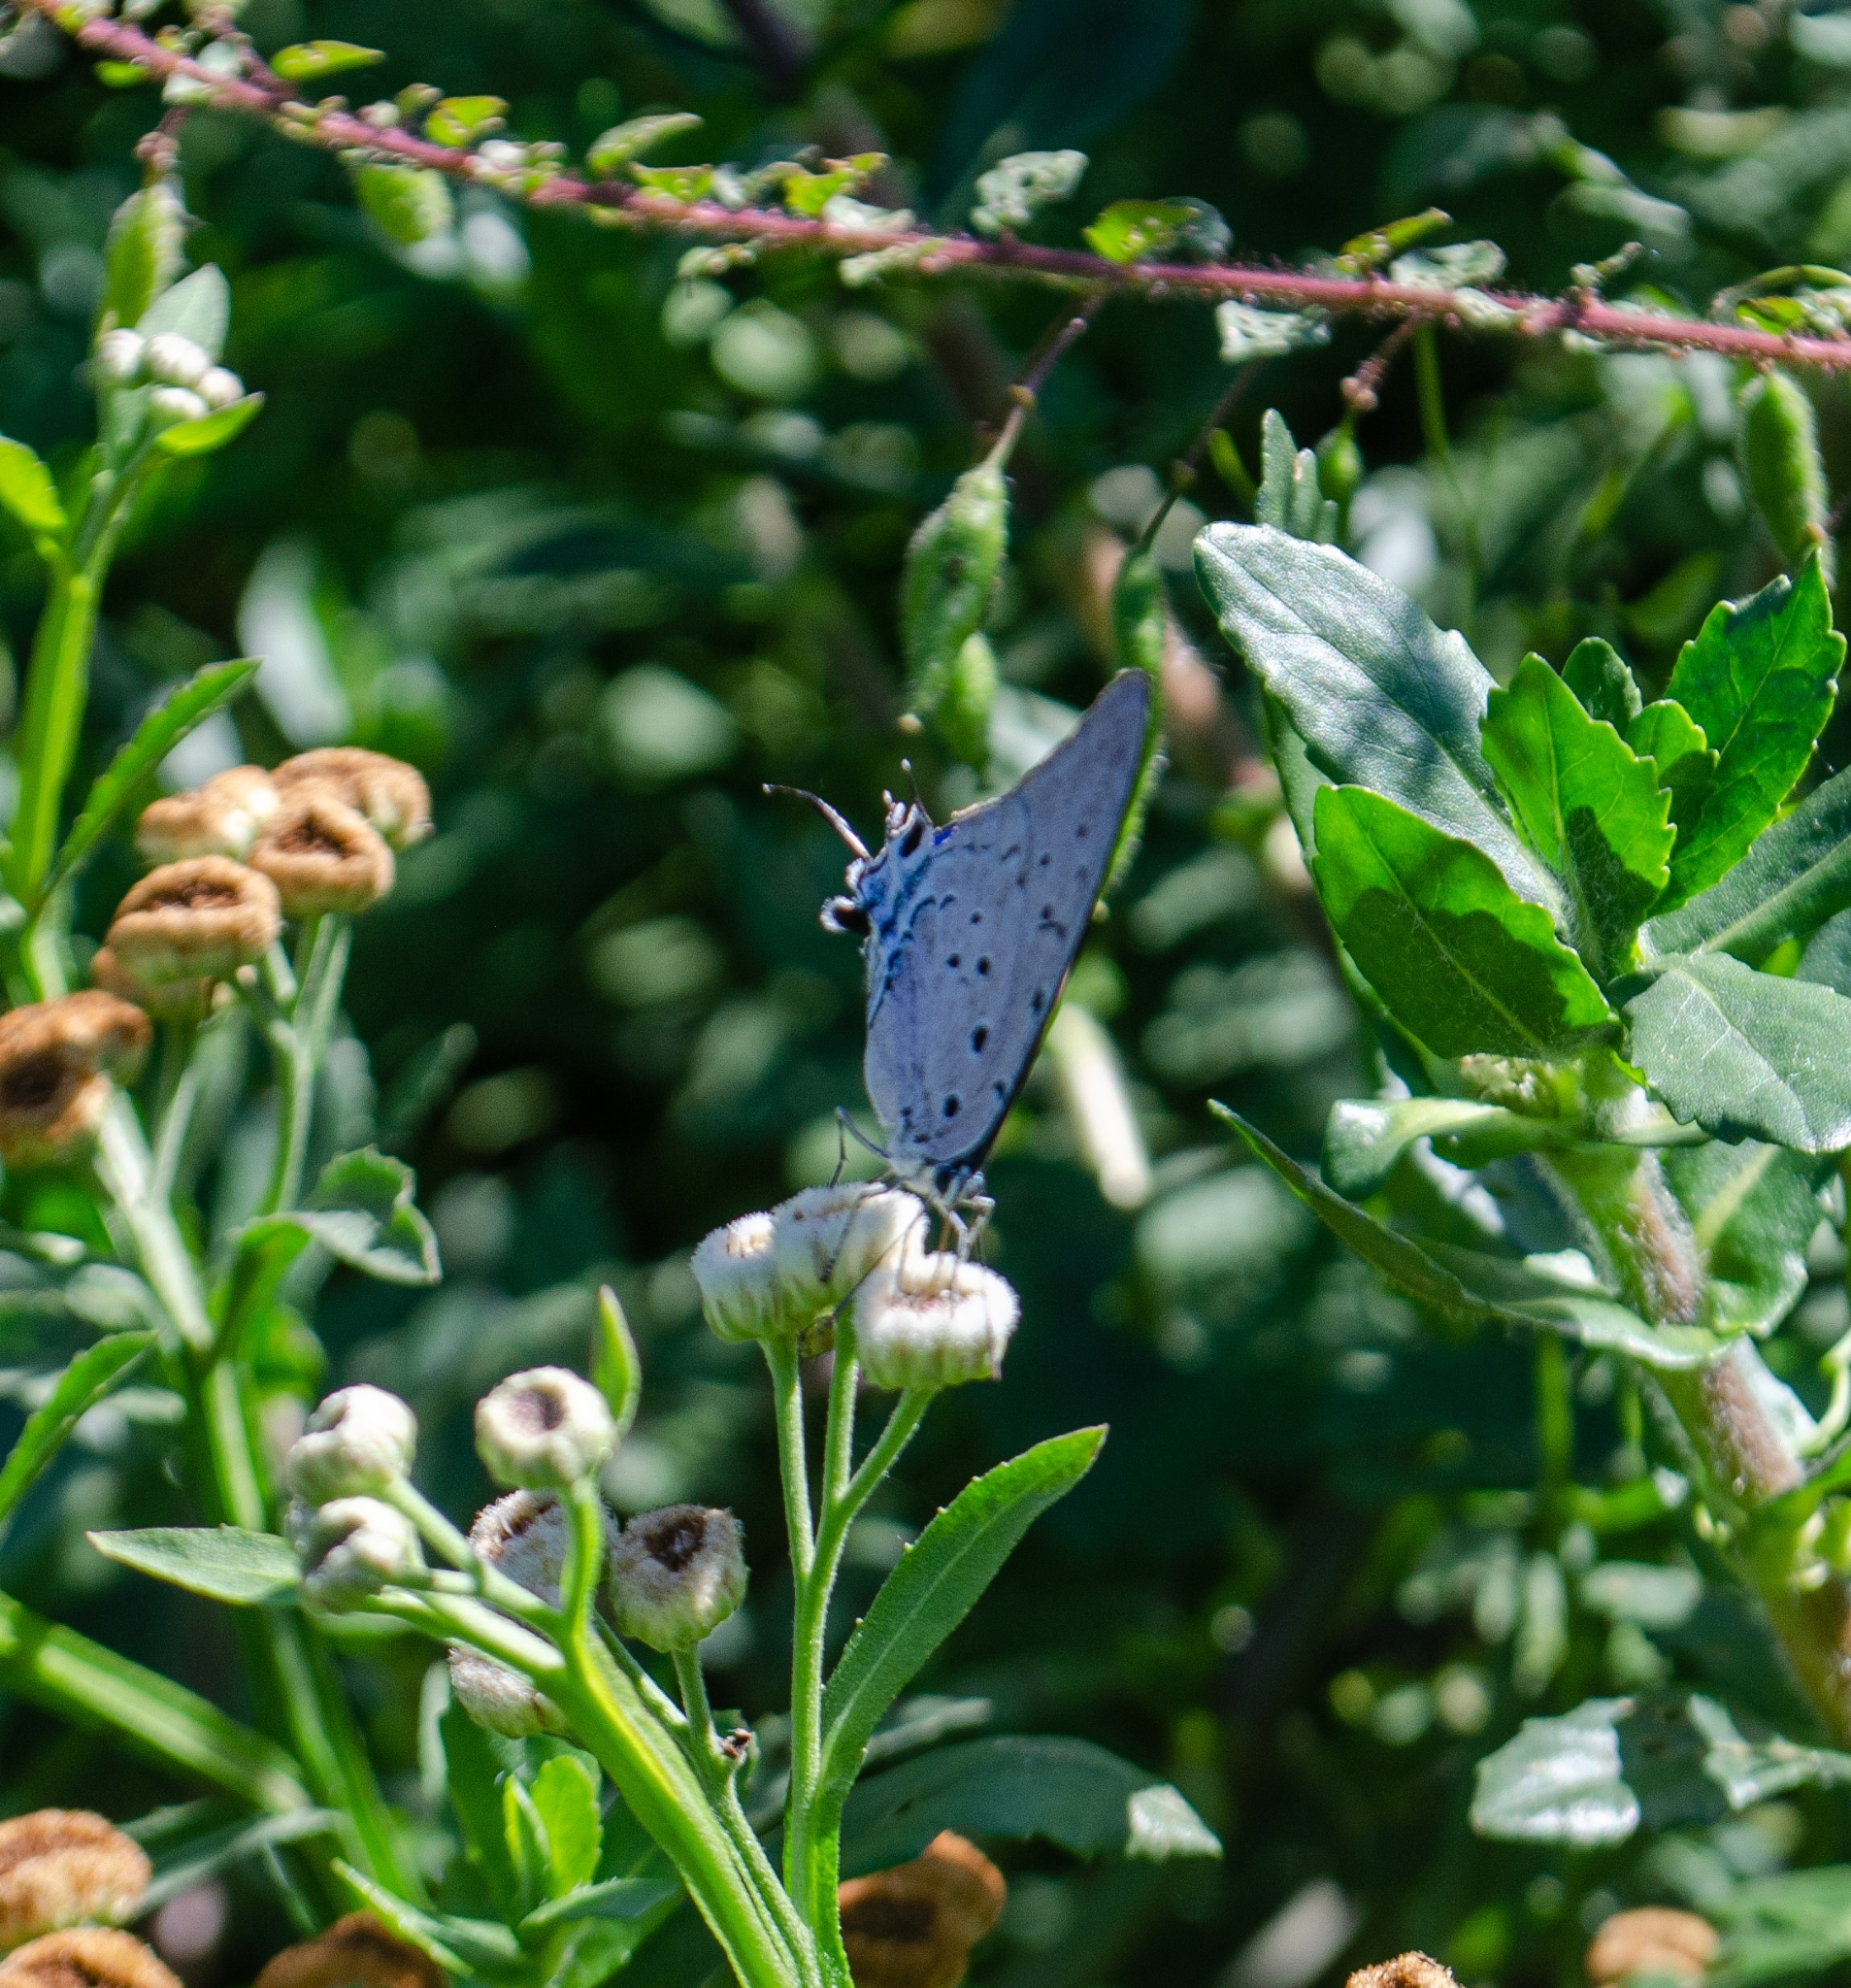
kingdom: Animalia
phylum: Arthropoda
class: Insecta
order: Lepidoptera
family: Lycaenidae
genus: Pseudolycaena
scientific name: Pseudolycaena marsyas
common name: Marsyas hairstreak
